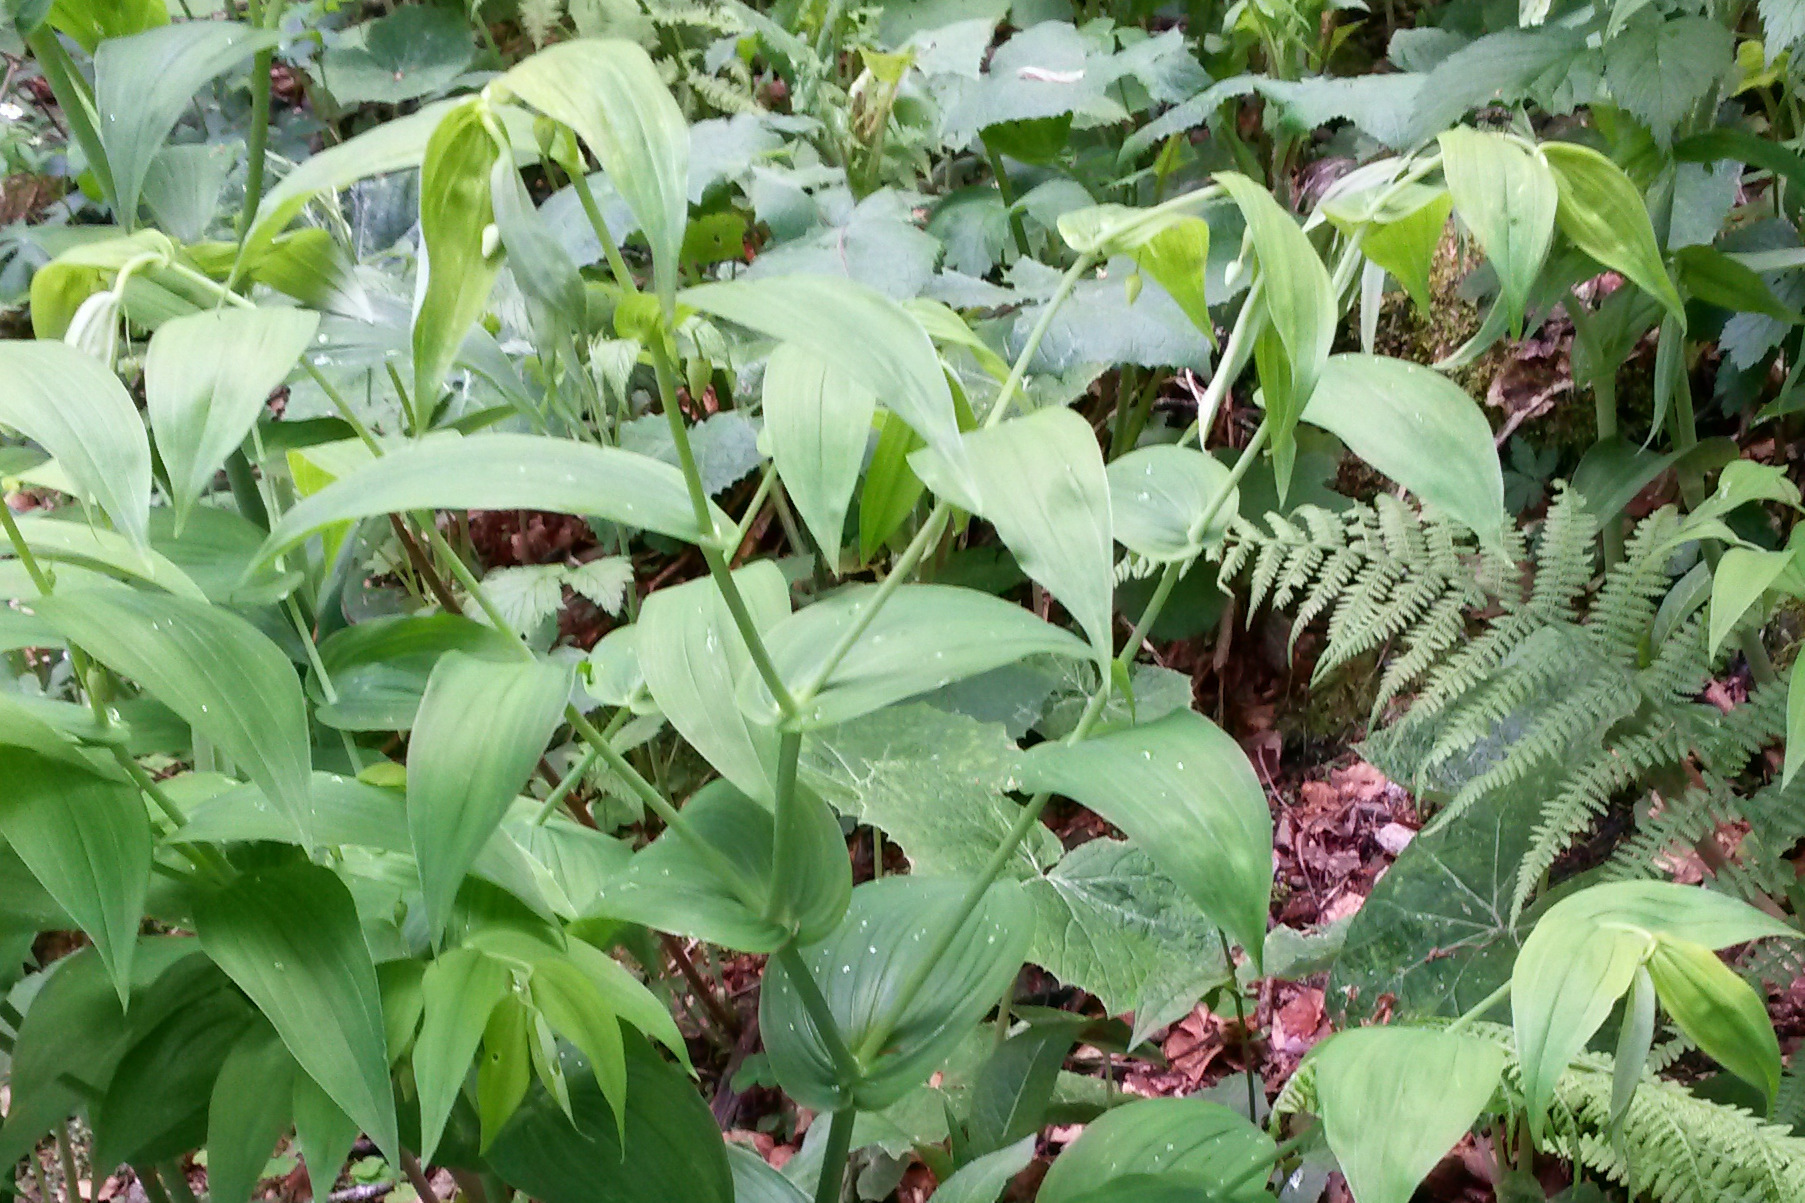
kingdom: Plantae
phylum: Tracheophyta
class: Liliopsida
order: Liliales
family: Liliaceae
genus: Streptopus
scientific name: Streptopus amplexifolius
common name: Clasp twisted stalk
